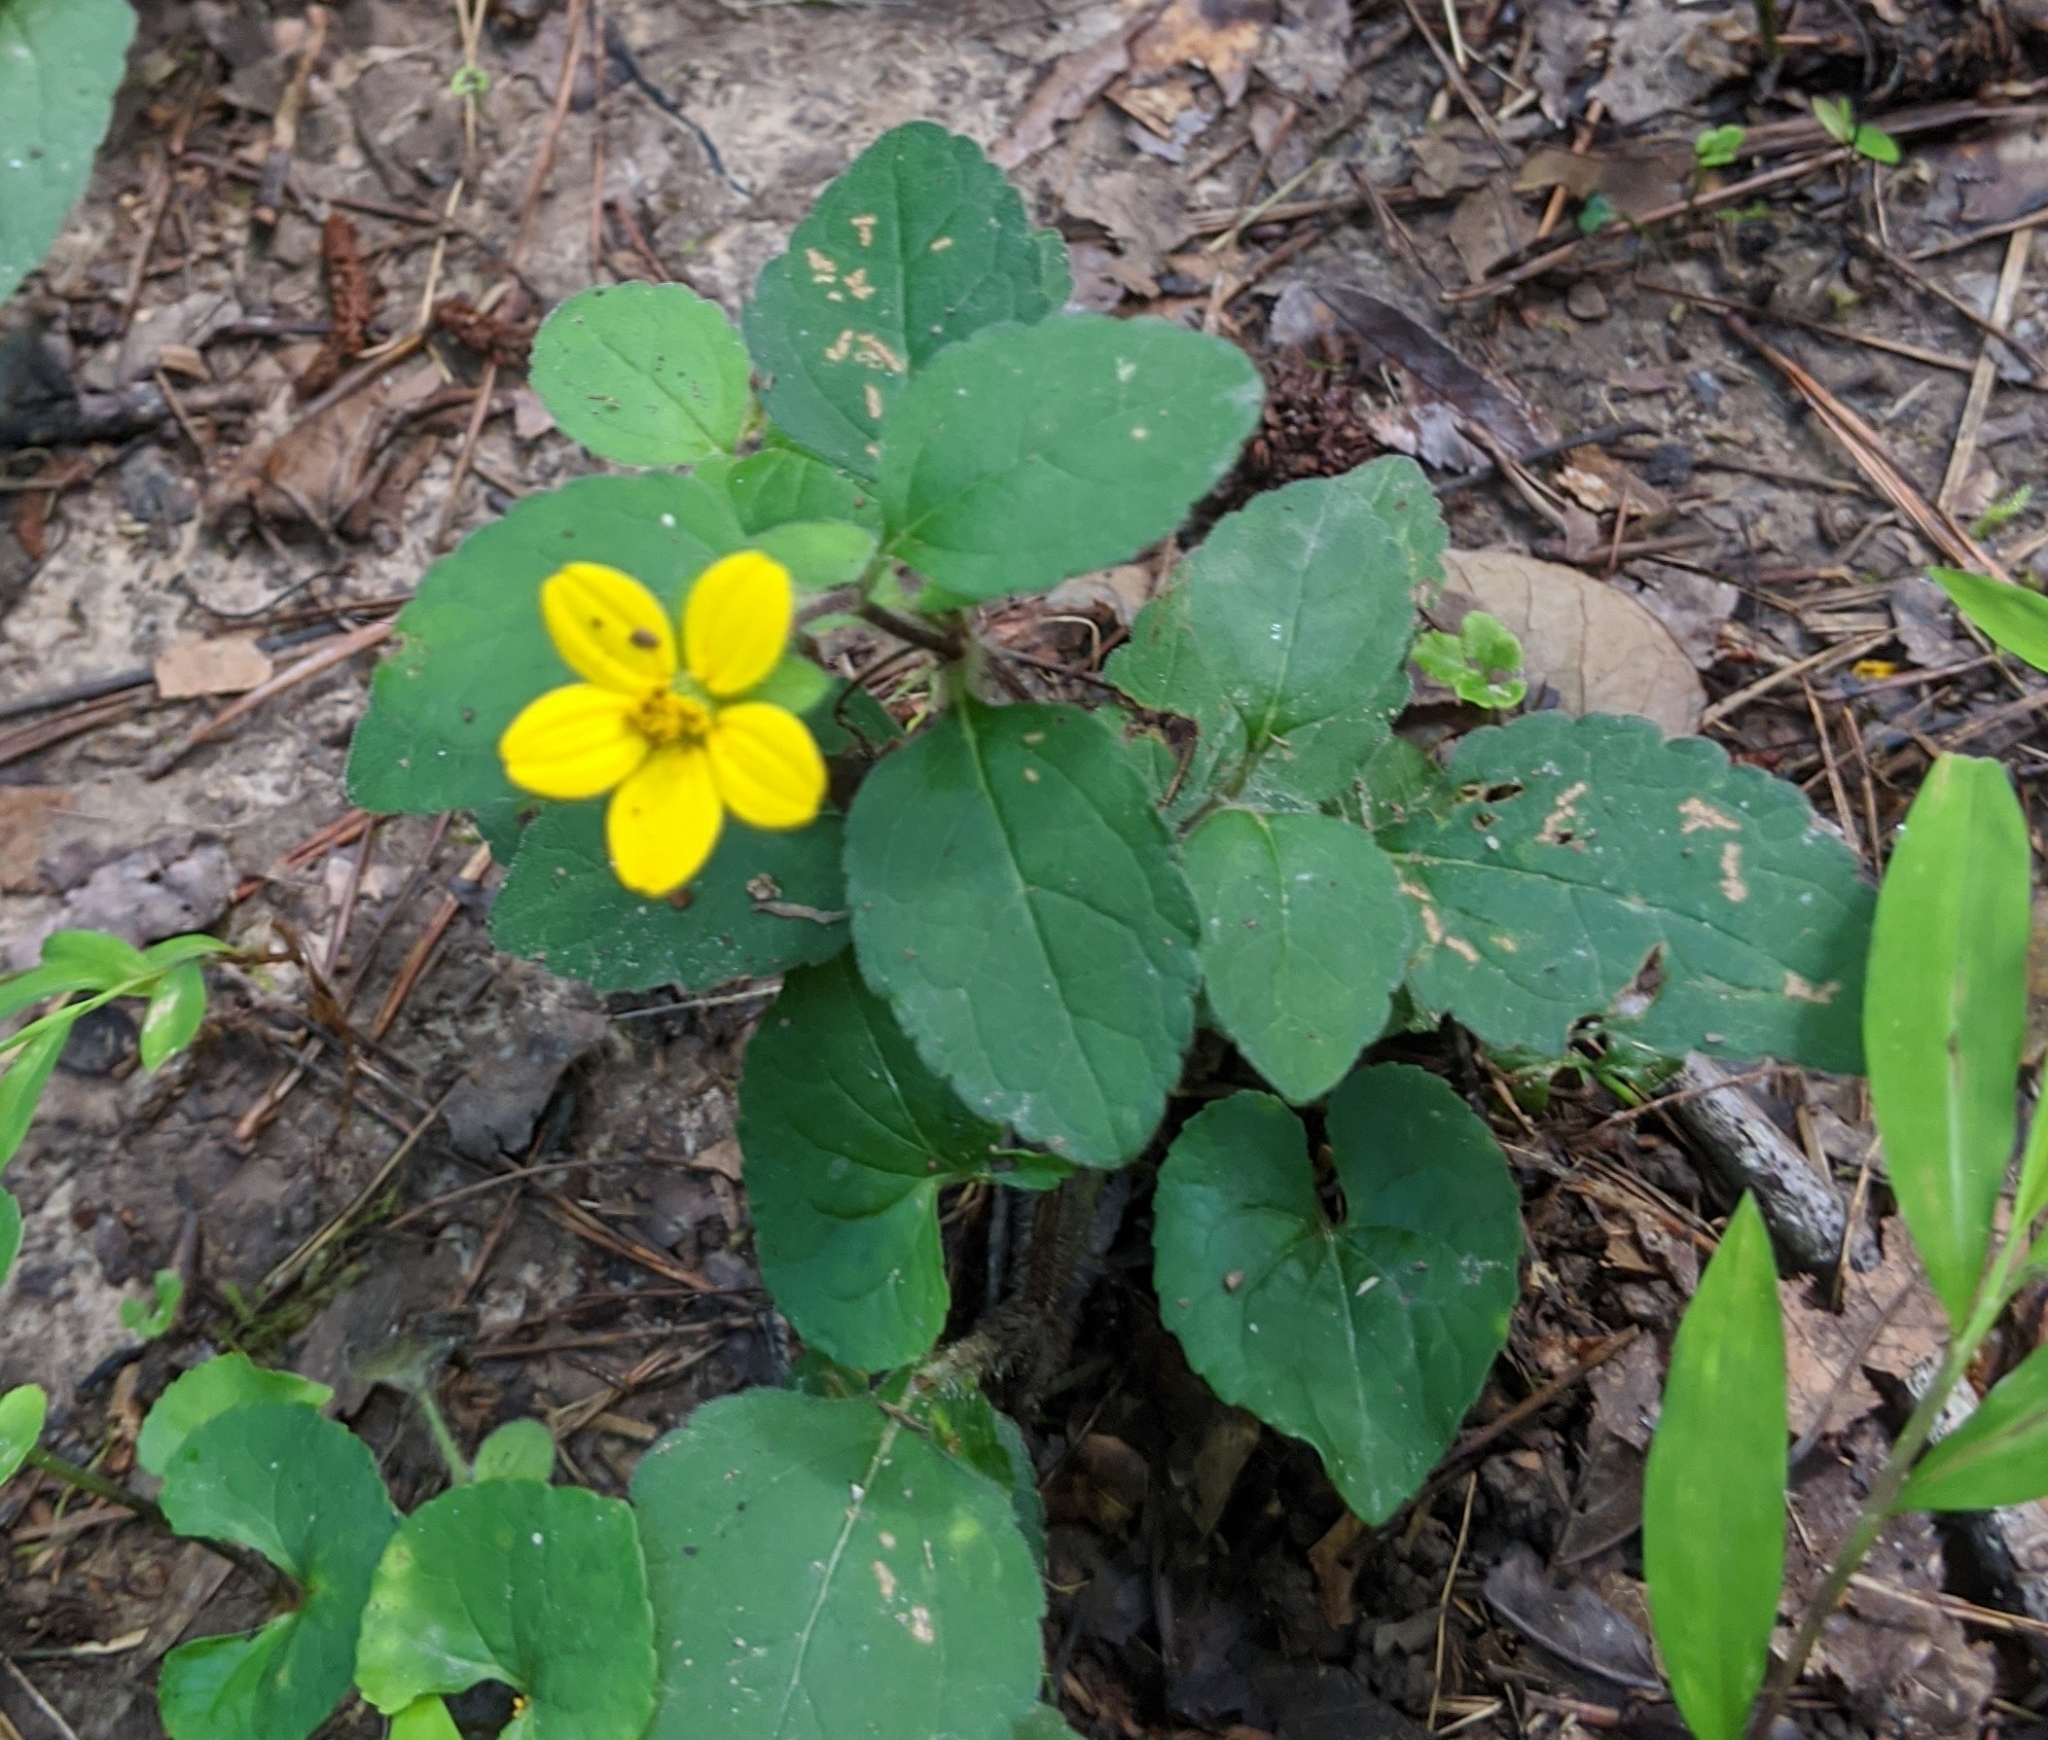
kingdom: Plantae
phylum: Tracheophyta
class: Magnoliopsida
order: Asterales
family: Asteraceae
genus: Chrysogonum
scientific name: Chrysogonum virginianum
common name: Golden-knee
